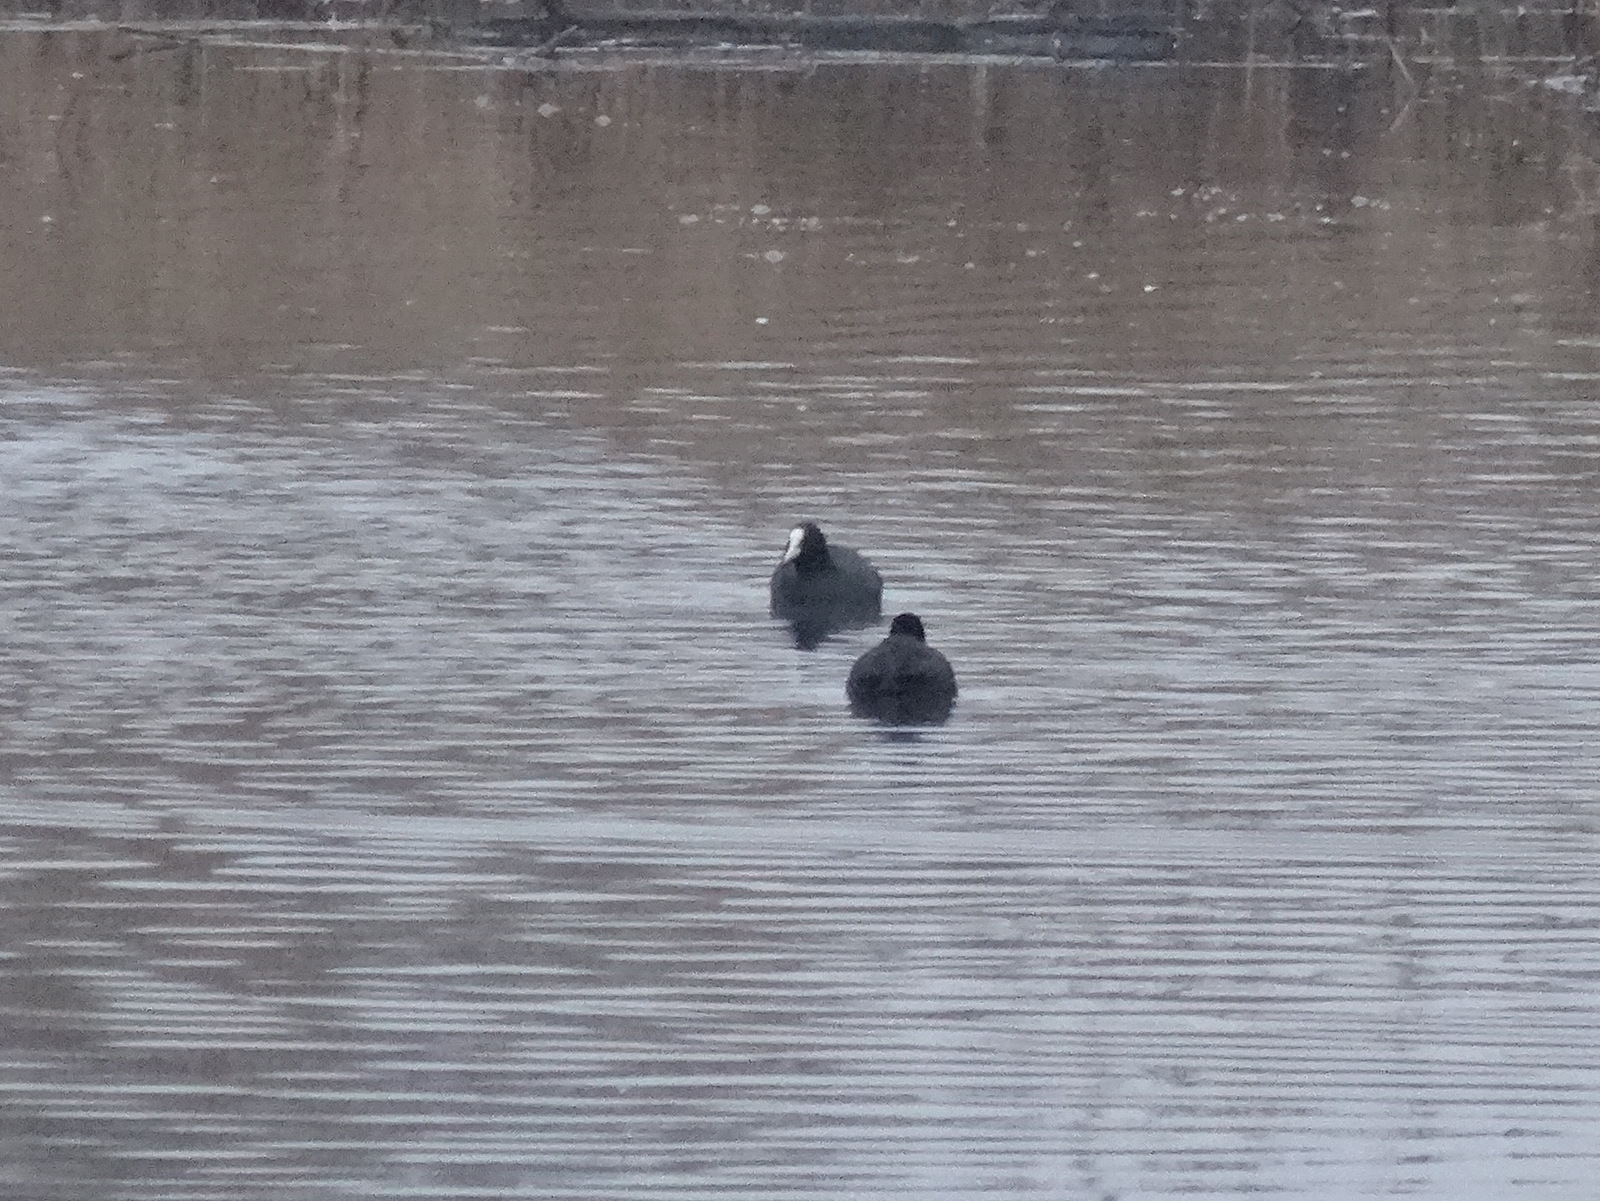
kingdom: Animalia
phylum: Chordata
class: Aves
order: Gruiformes
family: Rallidae
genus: Fulica
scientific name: Fulica atra
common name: Eurasian coot
